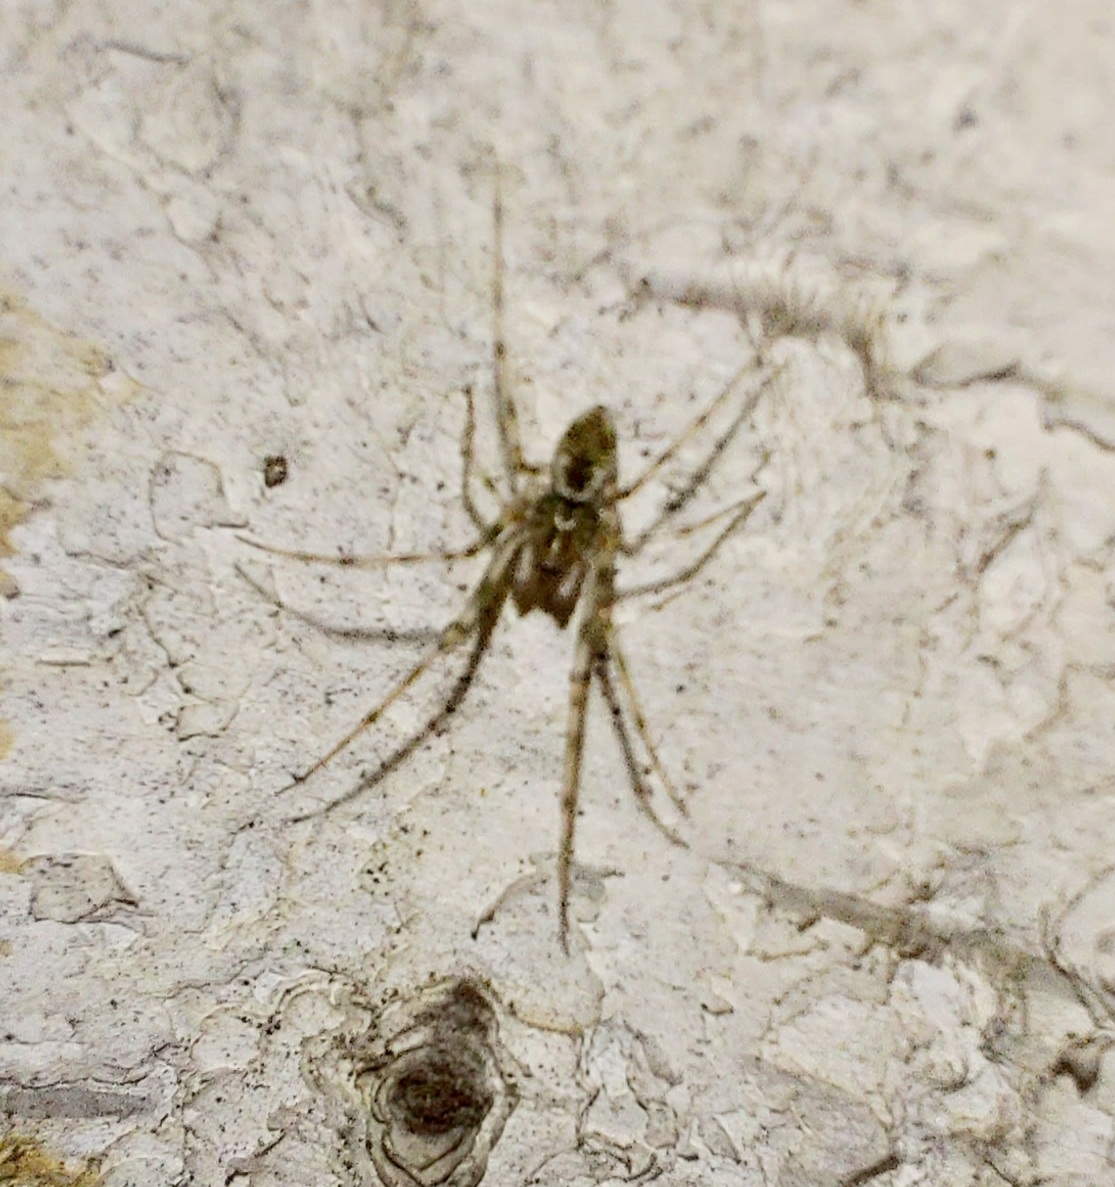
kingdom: Animalia
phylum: Arthropoda
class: Arachnida
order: Araneae
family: Linyphiidae
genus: Drapetisca
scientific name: Drapetisca socialis
